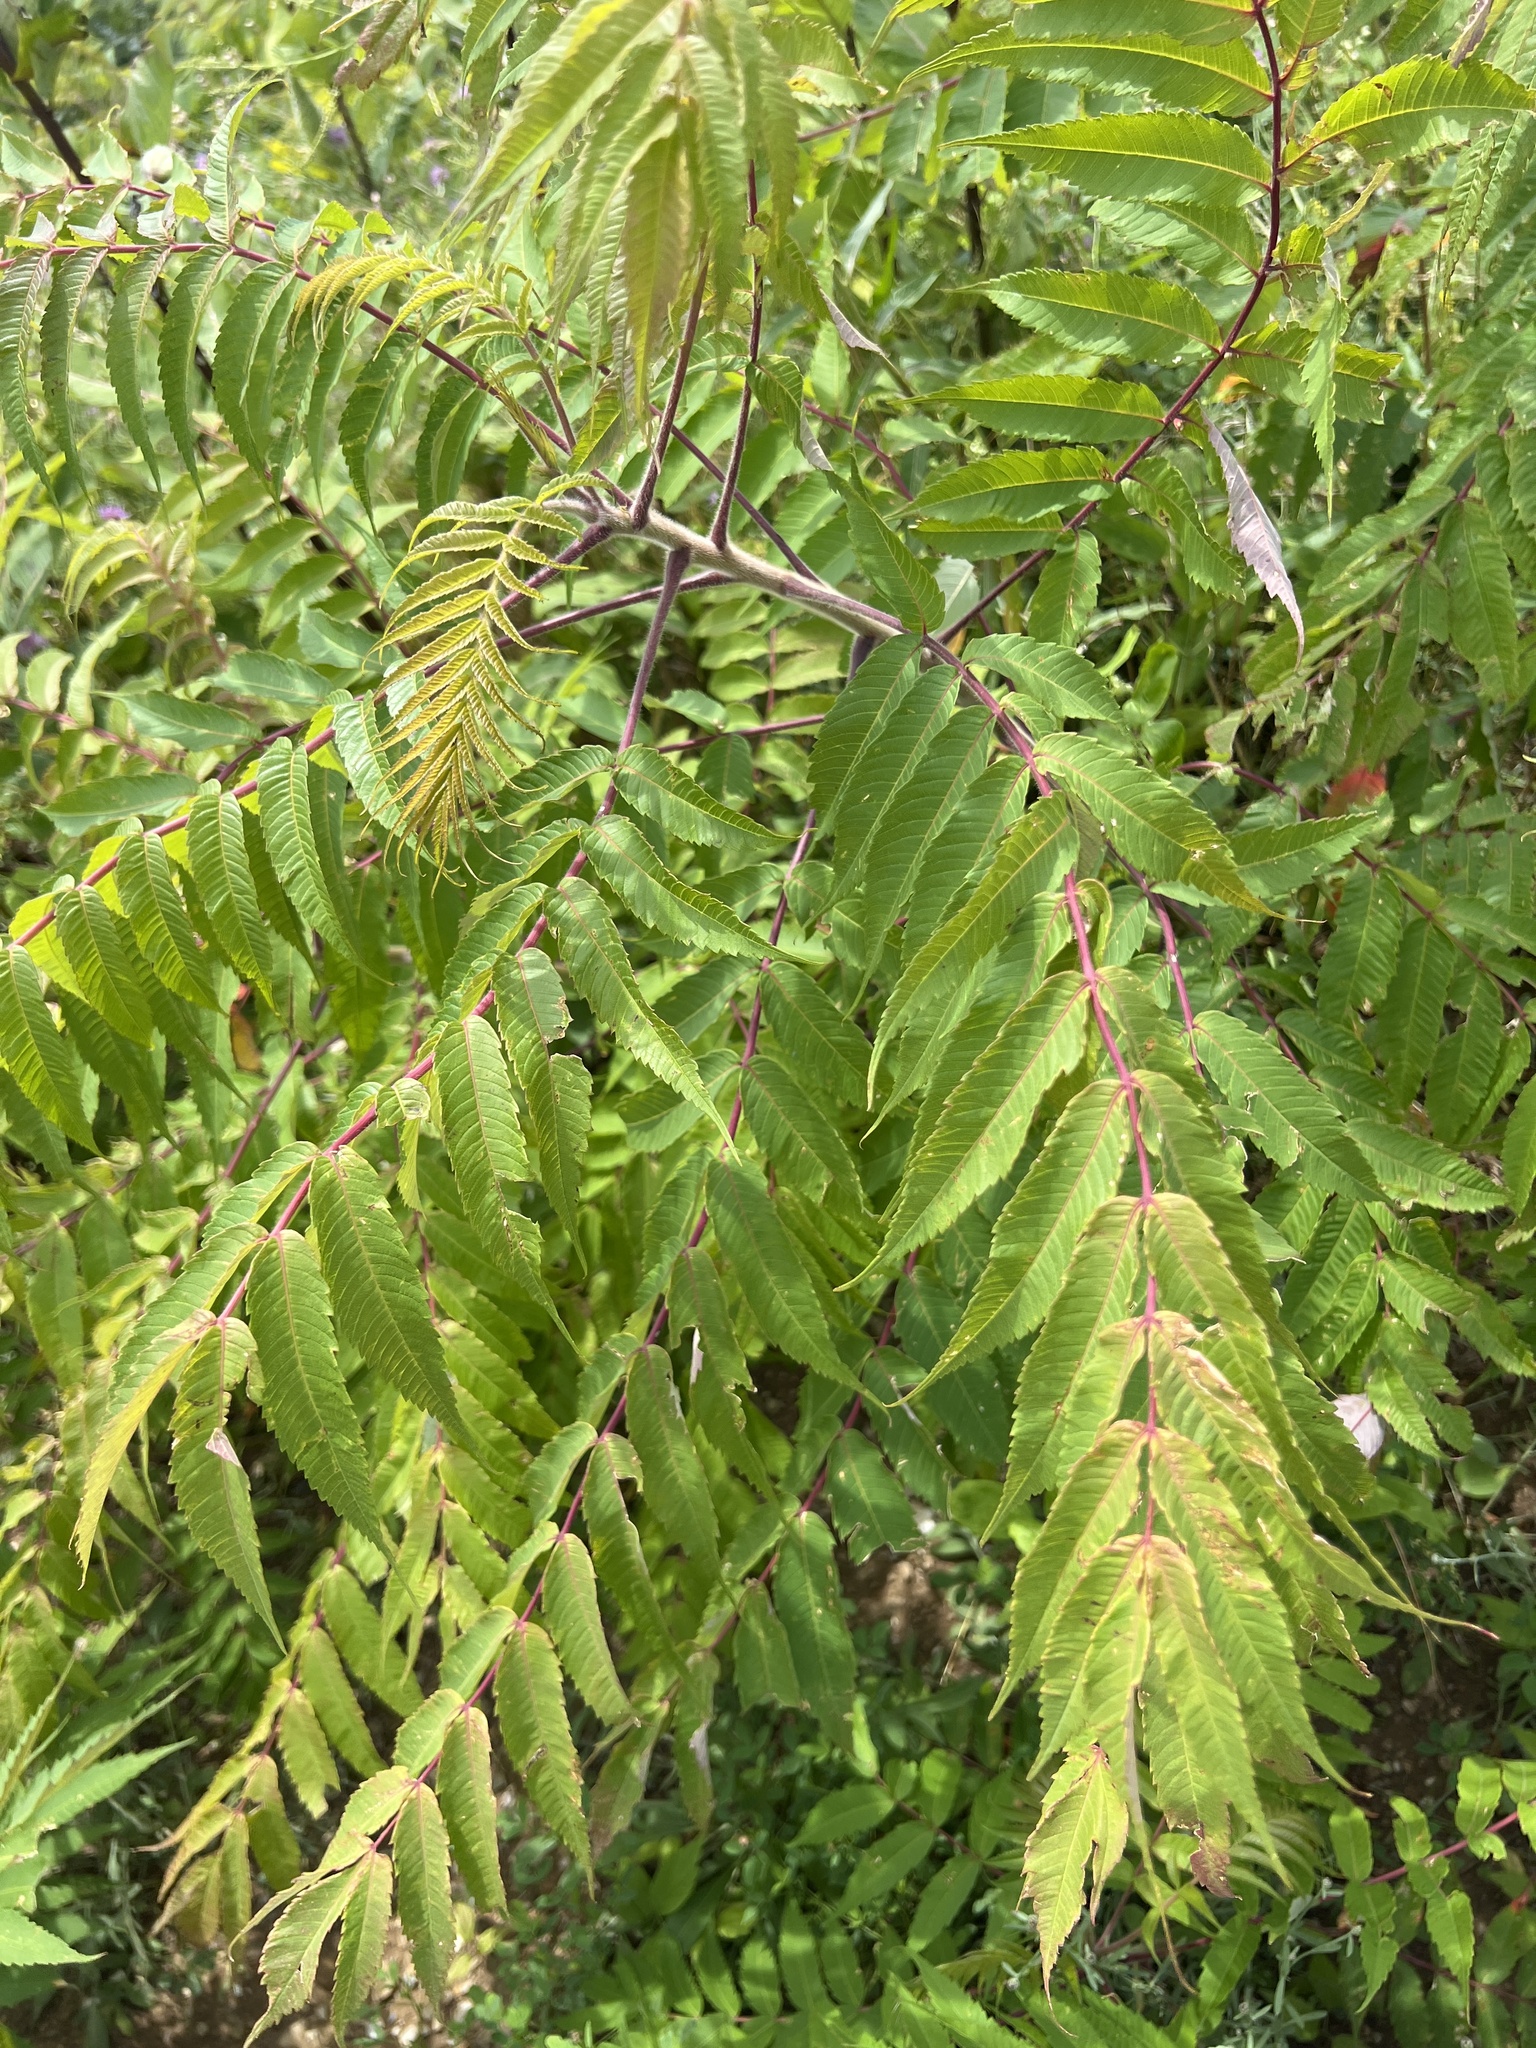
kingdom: Plantae
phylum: Tracheophyta
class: Magnoliopsida
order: Sapindales
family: Anacardiaceae
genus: Rhus
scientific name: Rhus typhina
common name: Staghorn sumac
